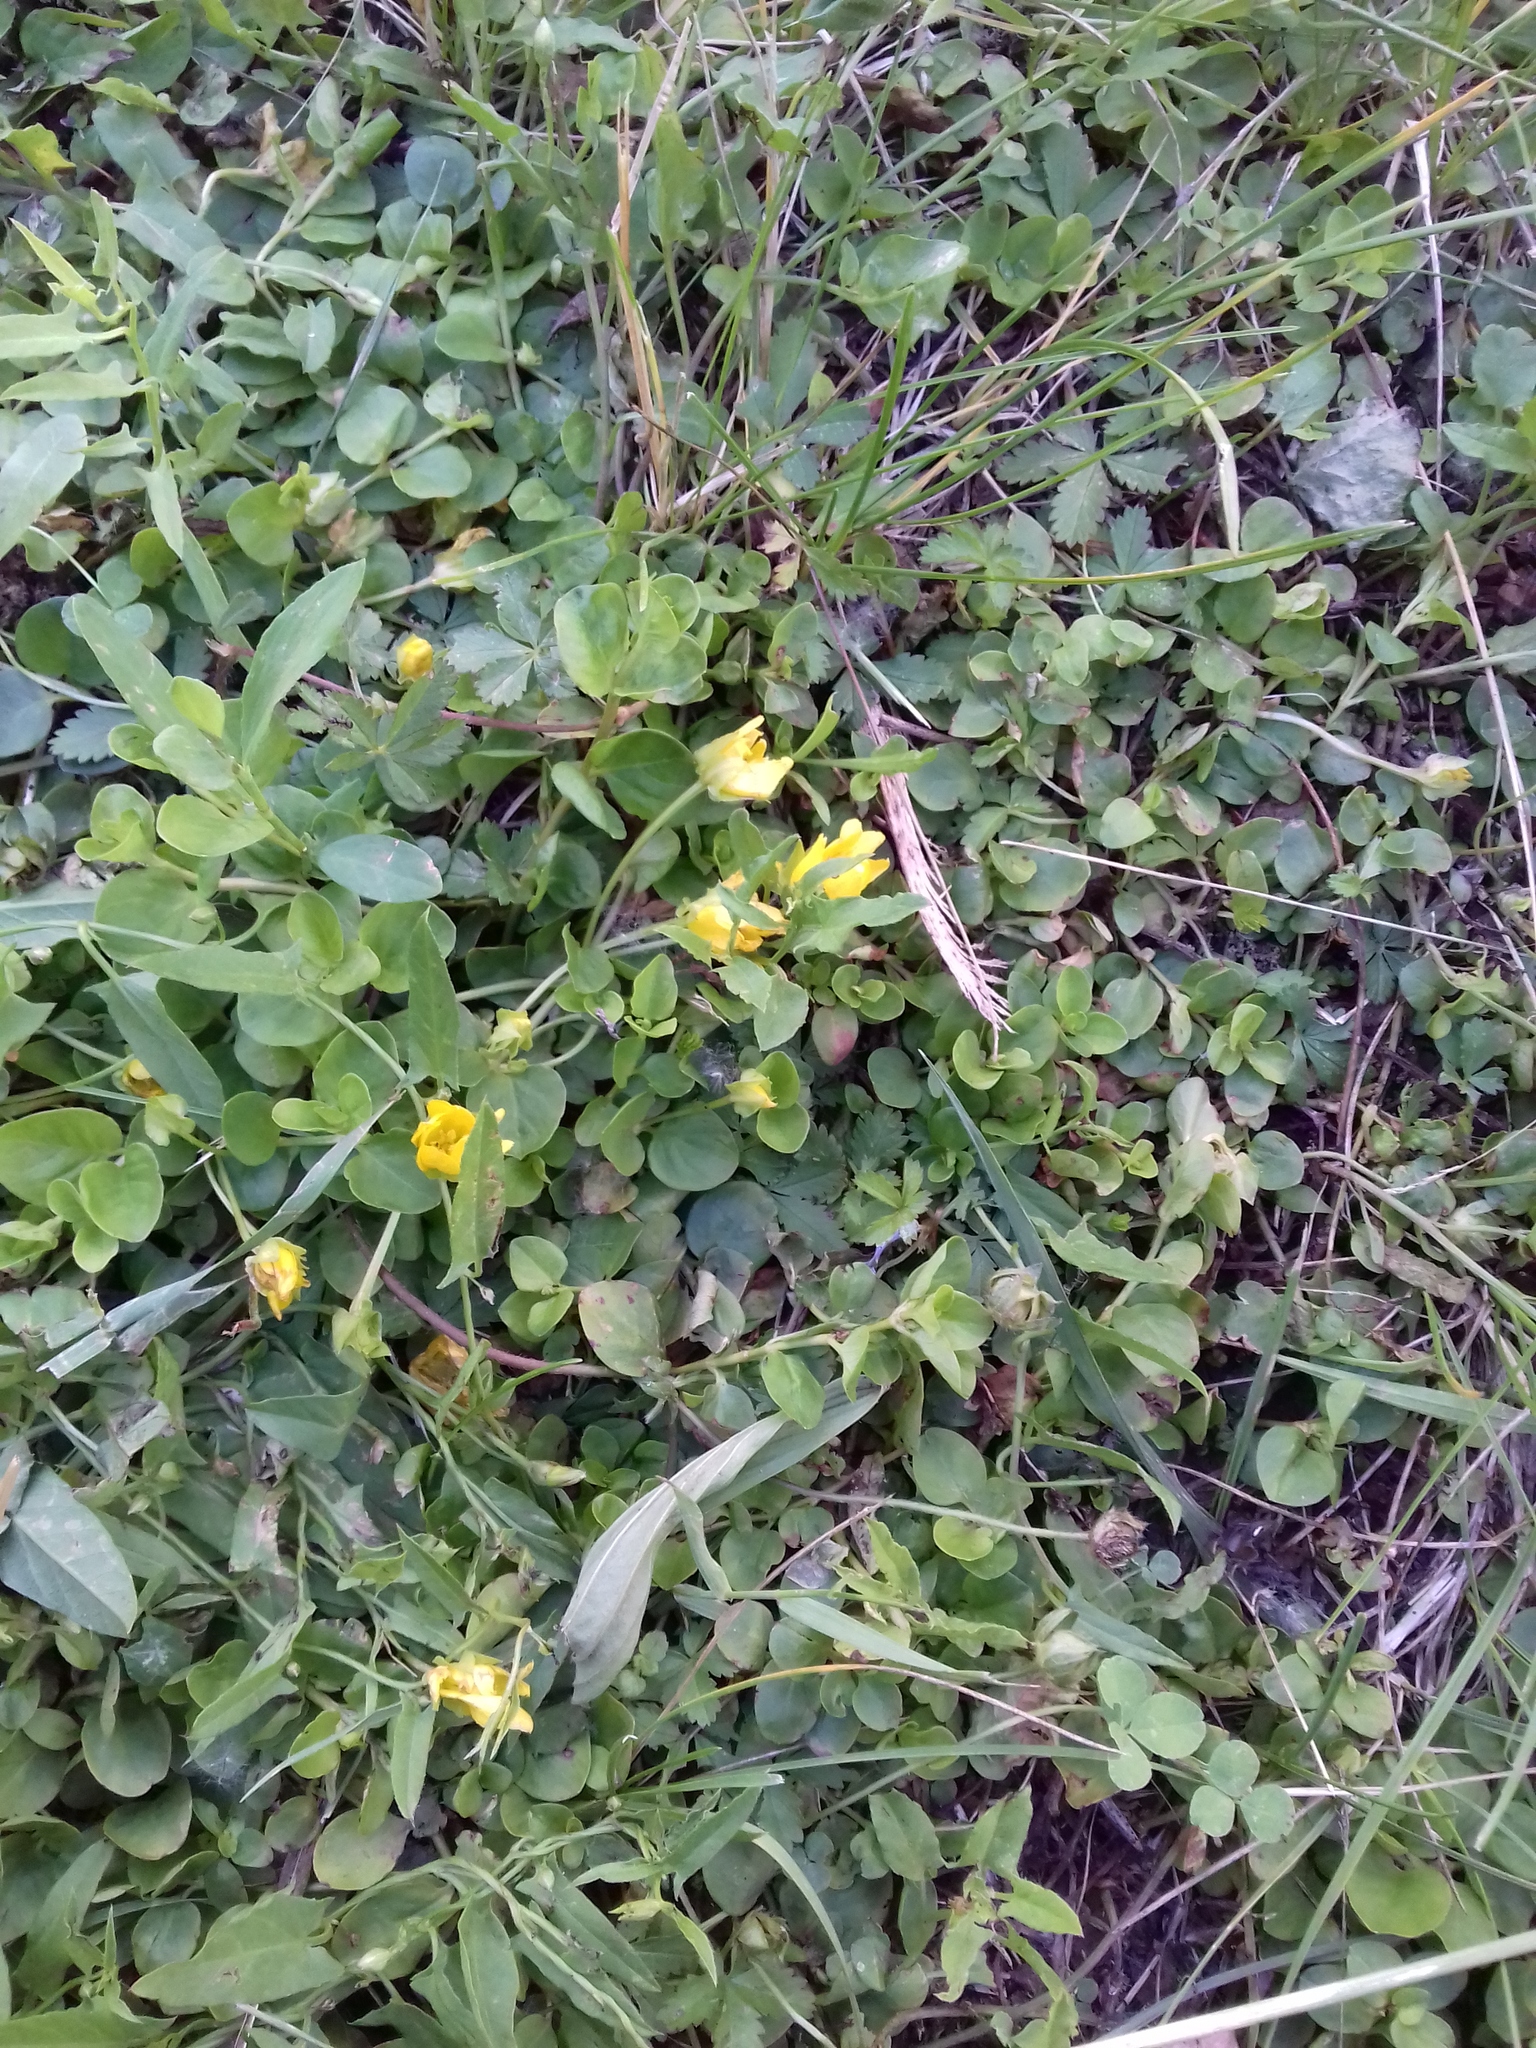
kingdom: Plantae
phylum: Tracheophyta
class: Magnoliopsida
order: Ericales
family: Primulaceae
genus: Lysimachia
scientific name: Lysimachia nummularia
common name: Moneywort
